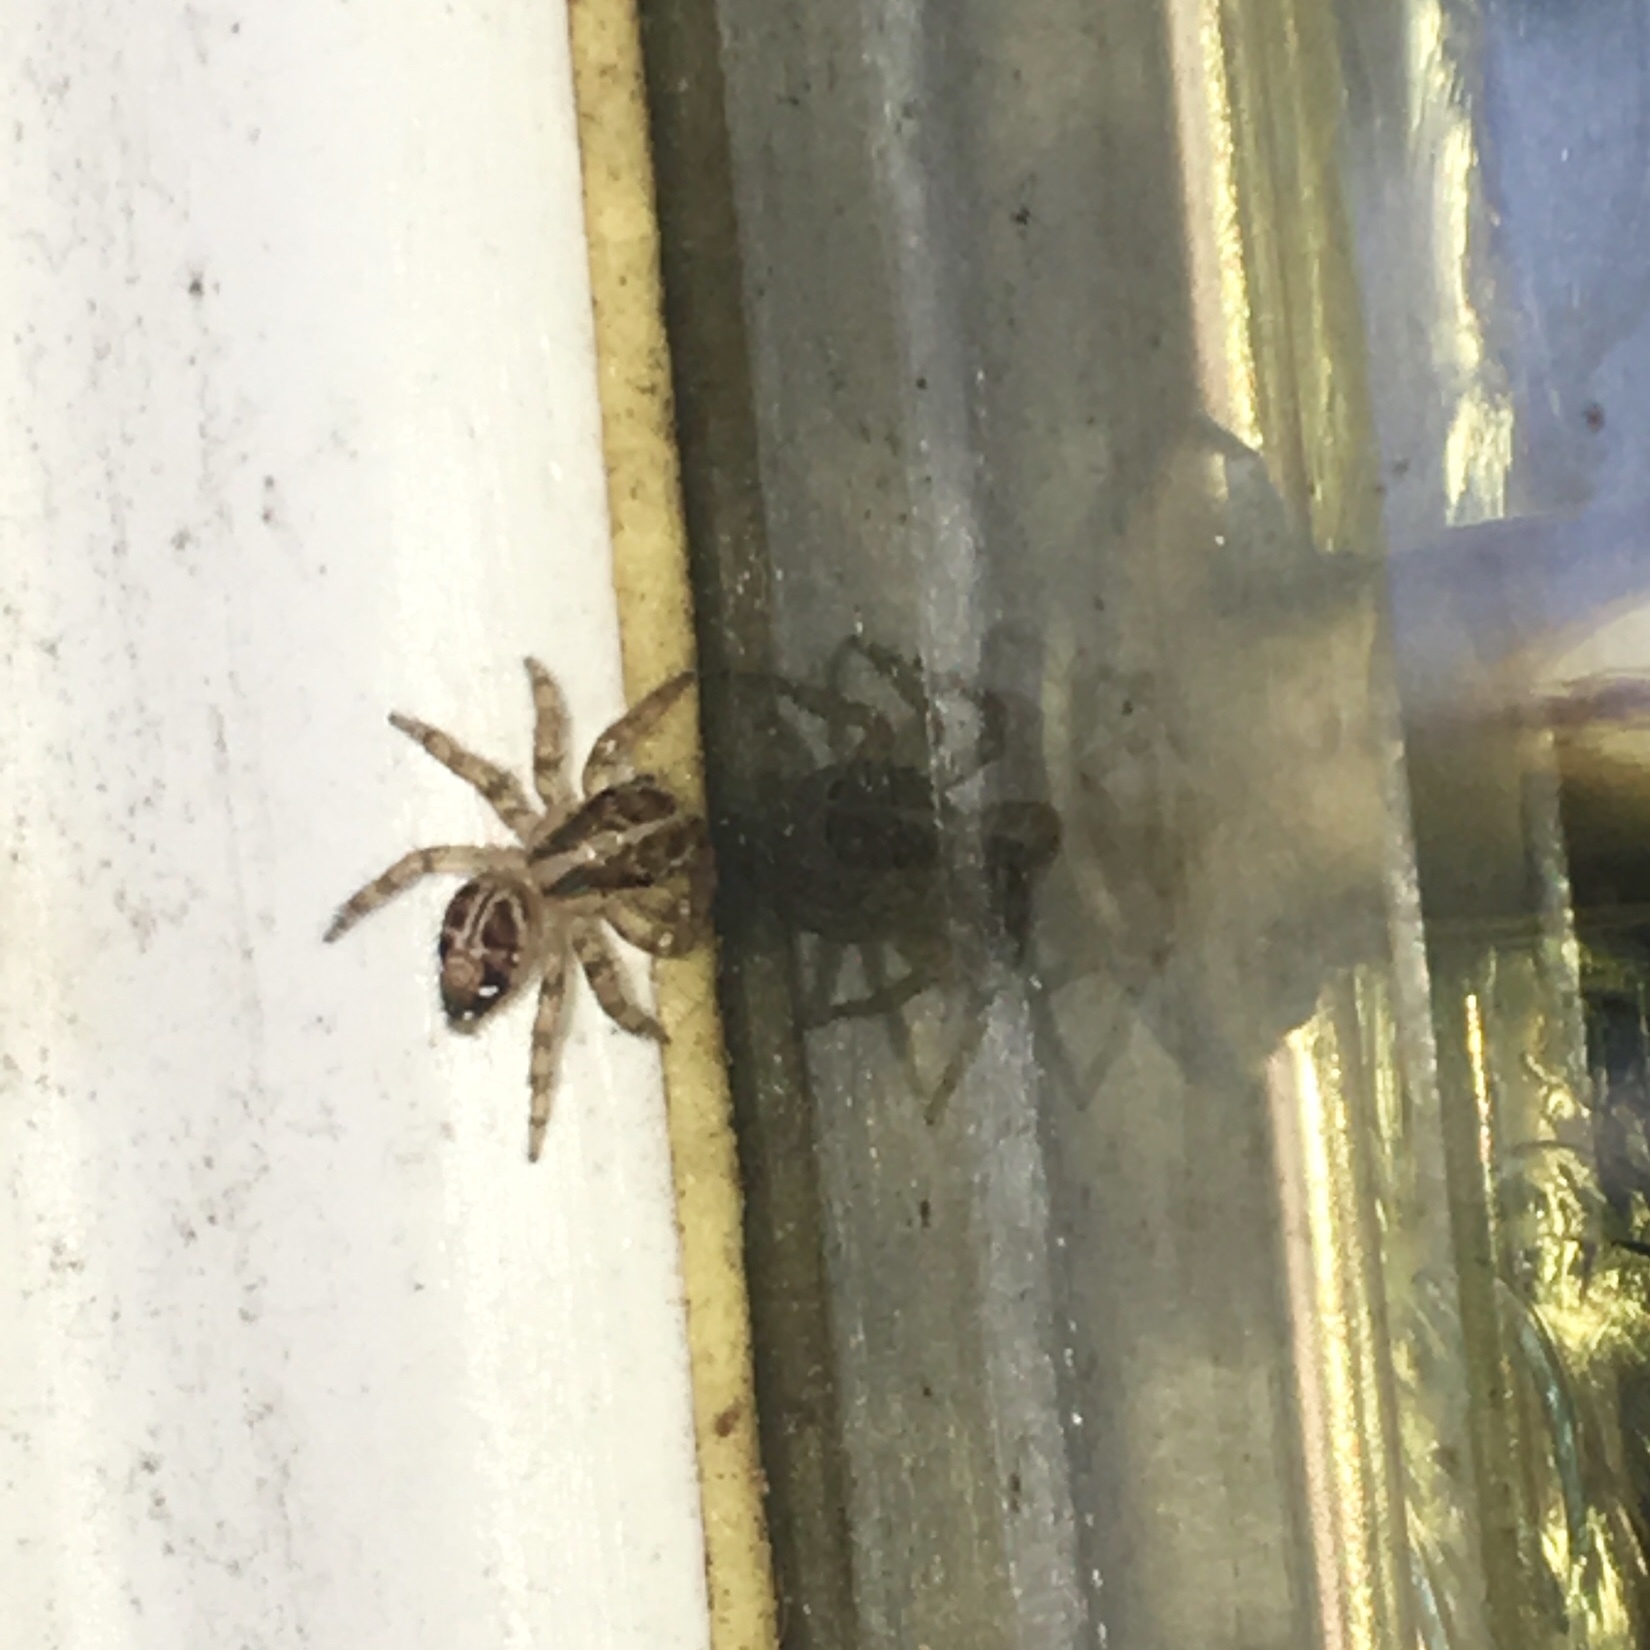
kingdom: Animalia
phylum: Arthropoda
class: Arachnida
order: Araneae
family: Salticidae
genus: Plexippus
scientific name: Plexippus paykulli
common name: Pantropical jumper
